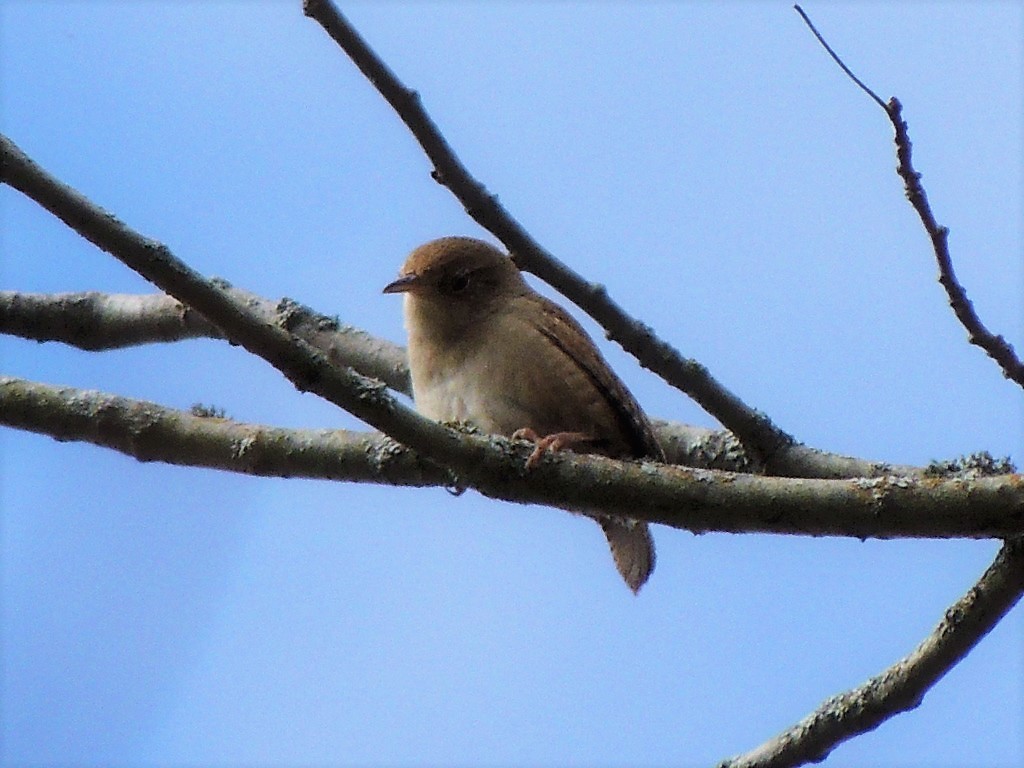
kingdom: Animalia
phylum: Chordata
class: Aves
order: Passeriformes
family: Troglodytidae
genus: Troglodytes
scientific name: Troglodytes aedon
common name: House wren
